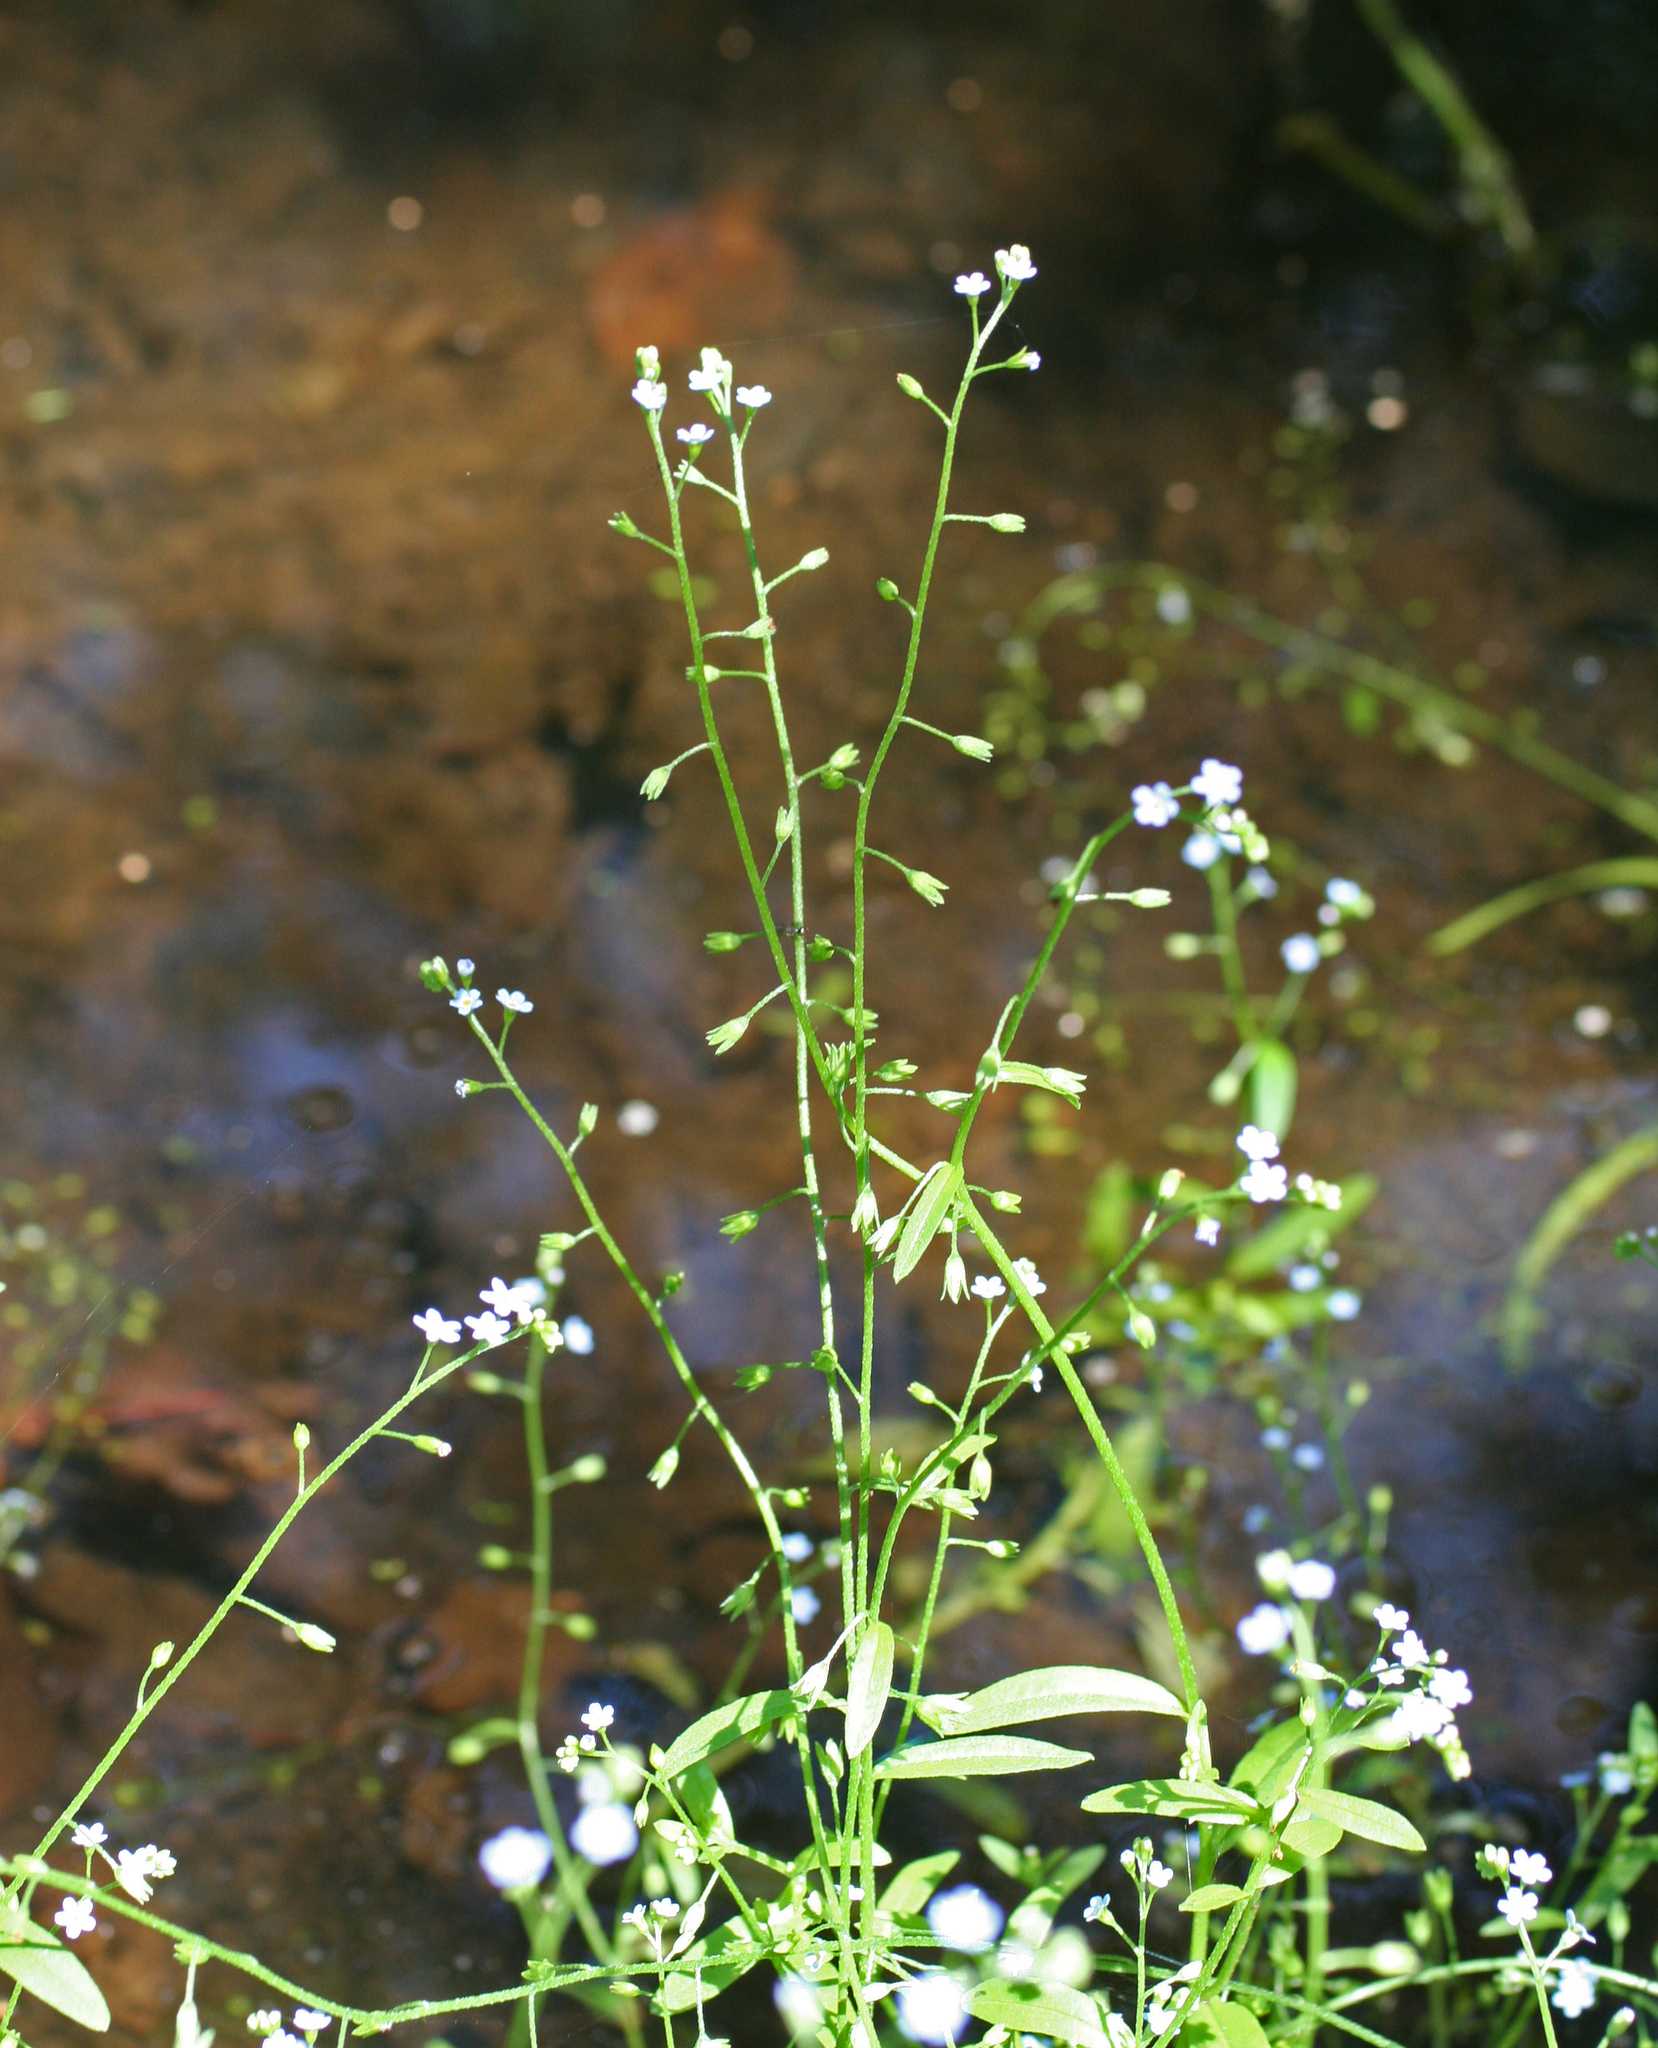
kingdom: Plantae
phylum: Tracheophyta
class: Magnoliopsida
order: Boraginales
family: Boraginaceae
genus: Myosotis
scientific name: Myosotis laxa
